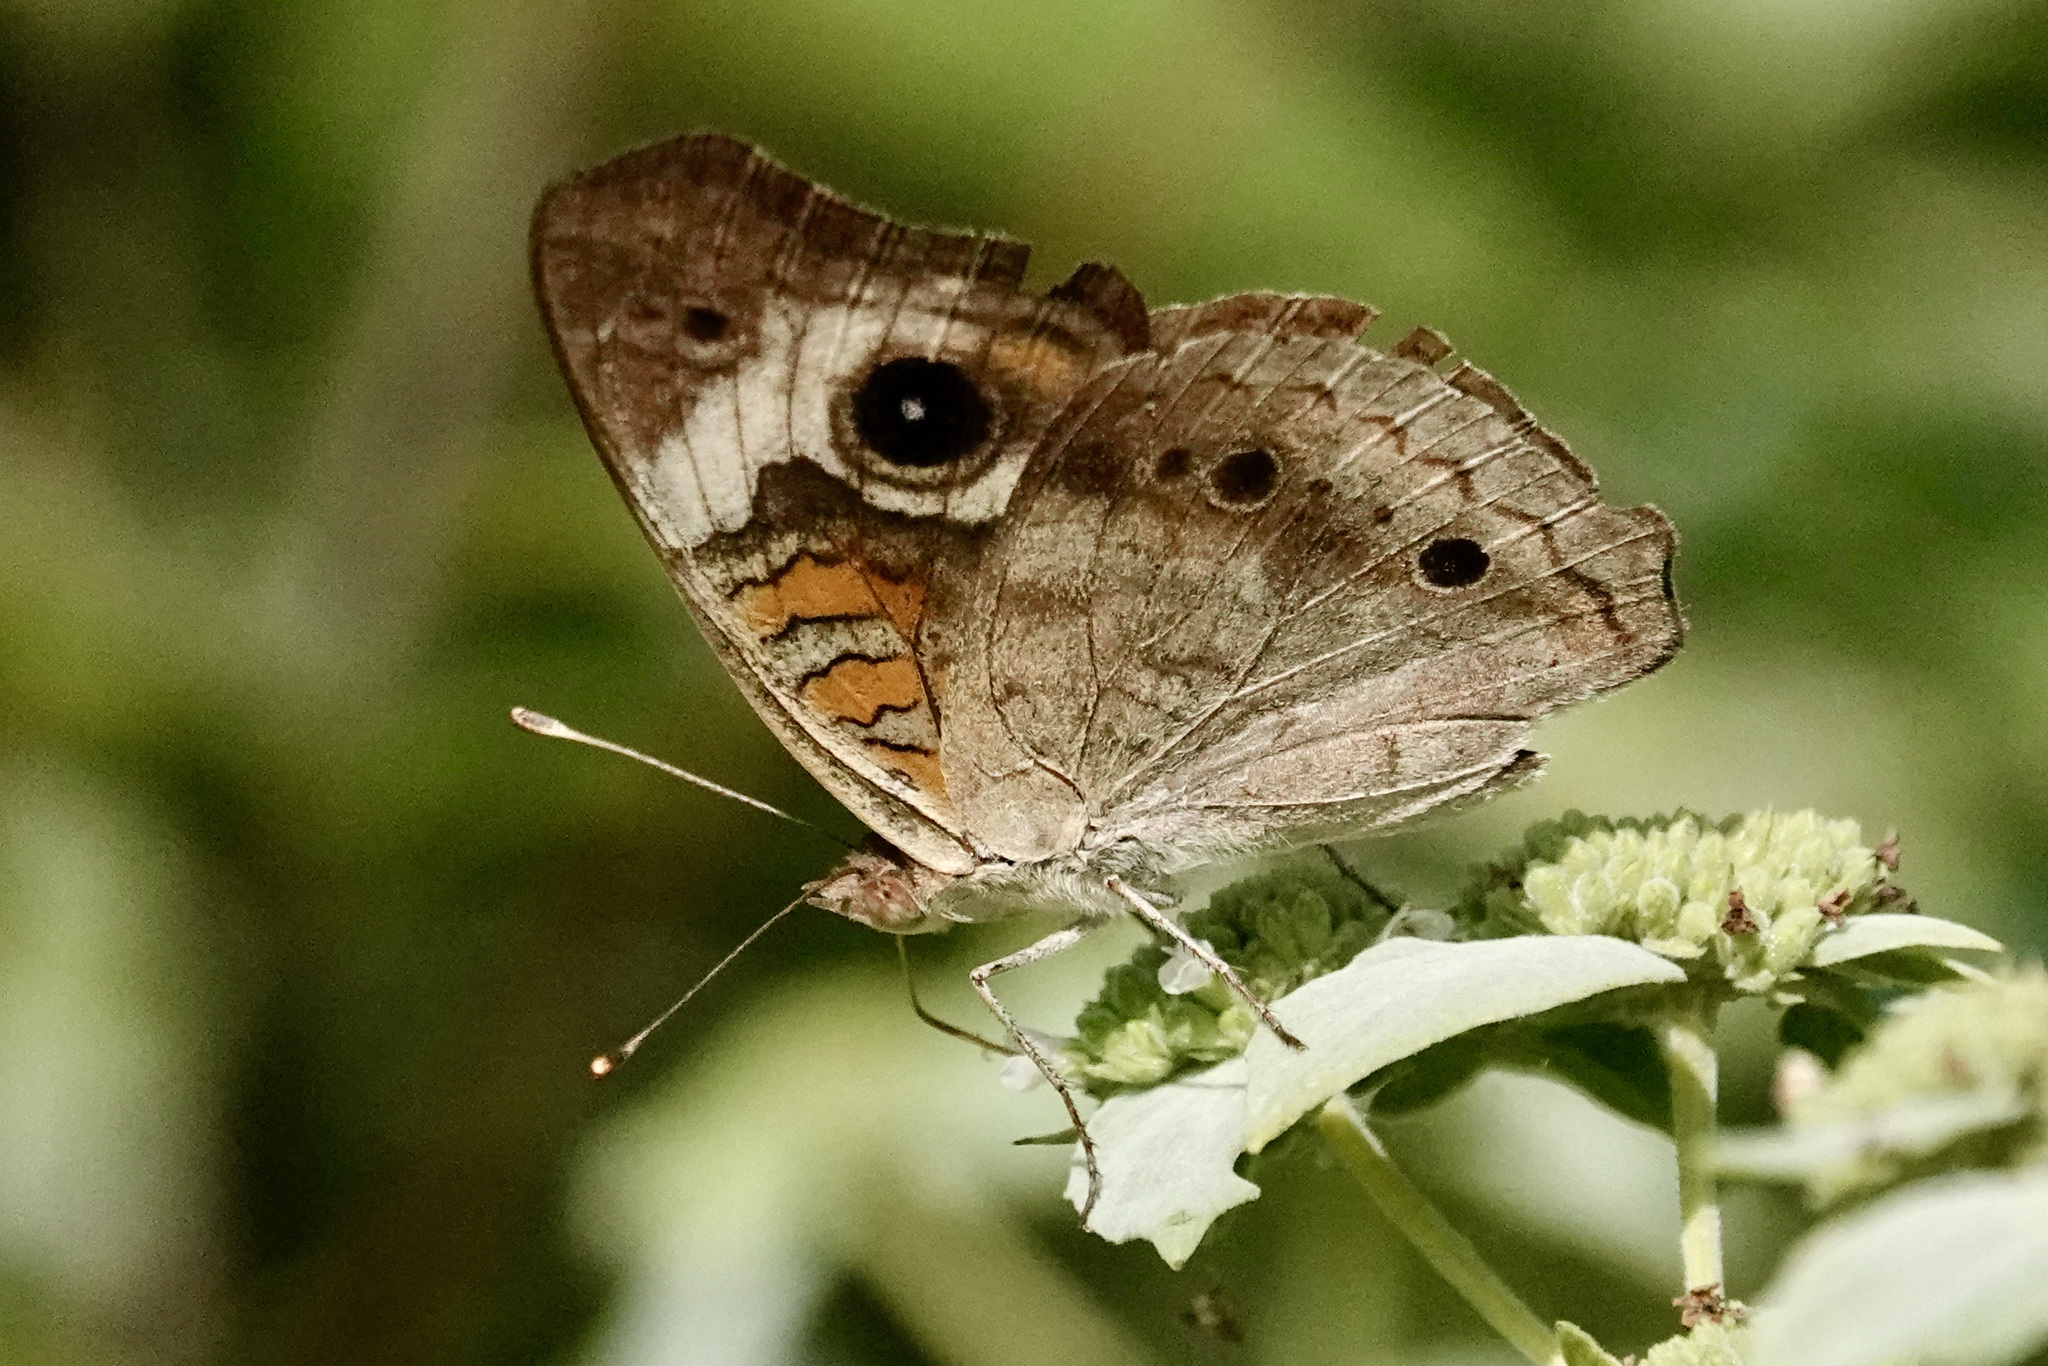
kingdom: Animalia
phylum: Arthropoda
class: Insecta
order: Lepidoptera
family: Nymphalidae
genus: Junonia
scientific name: Junonia coenia
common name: Common buckeye
